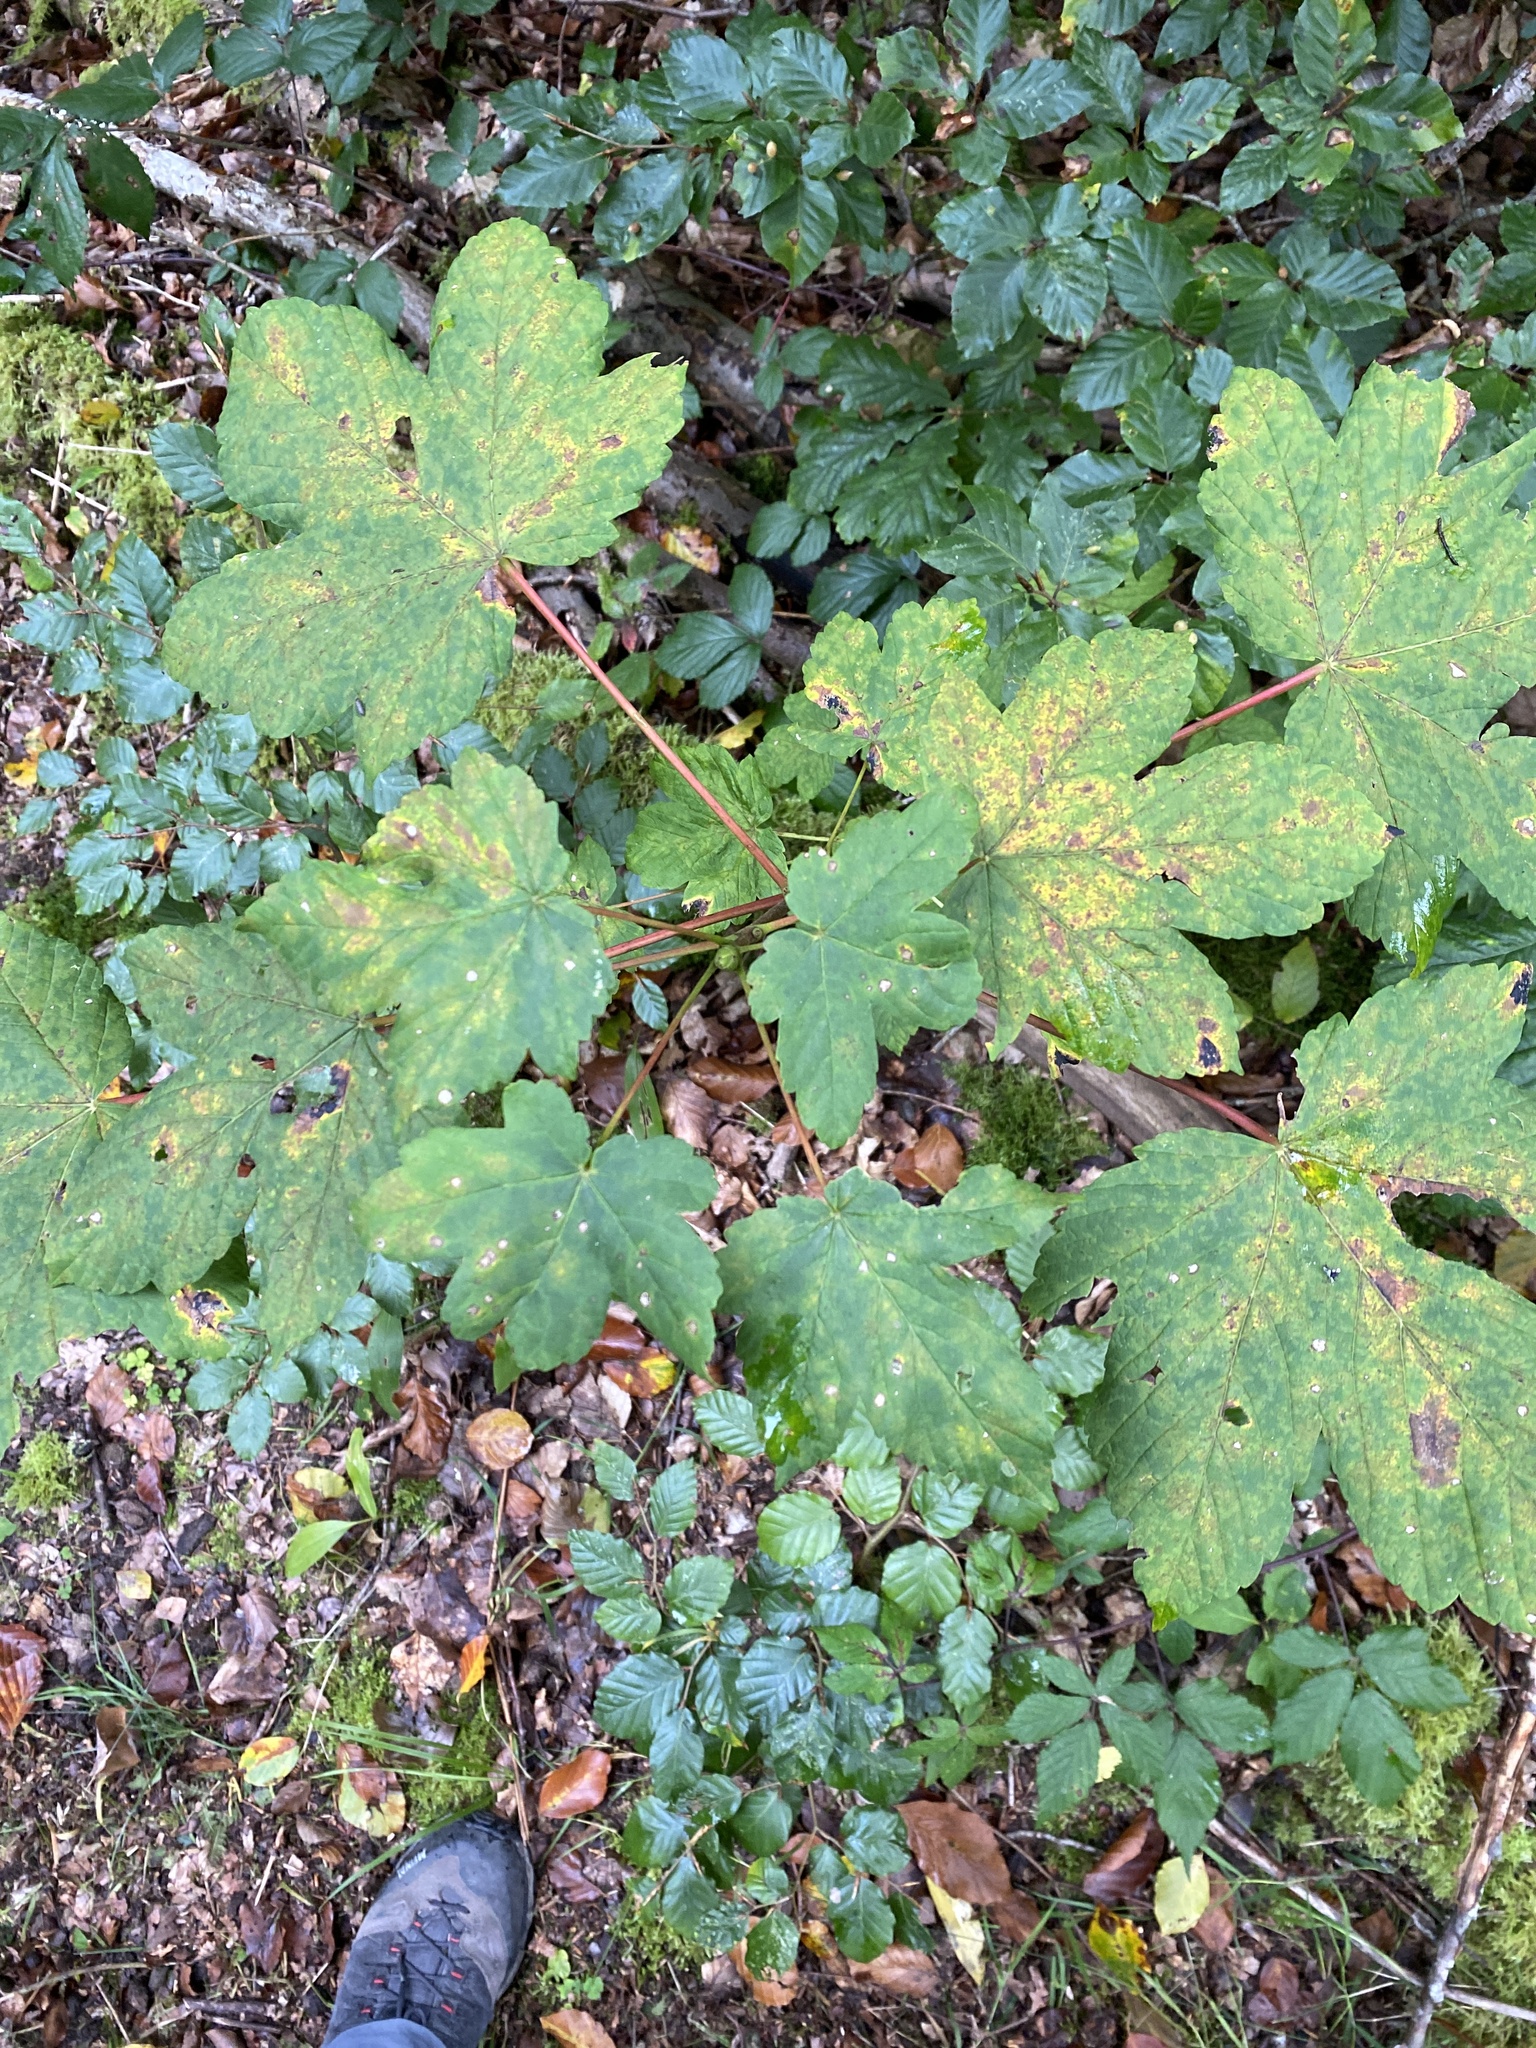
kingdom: Plantae
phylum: Tracheophyta
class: Magnoliopsida
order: Sapindales
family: Sapindaceae
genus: Acer
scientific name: Acer pseudoplatanus
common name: Sycamore
